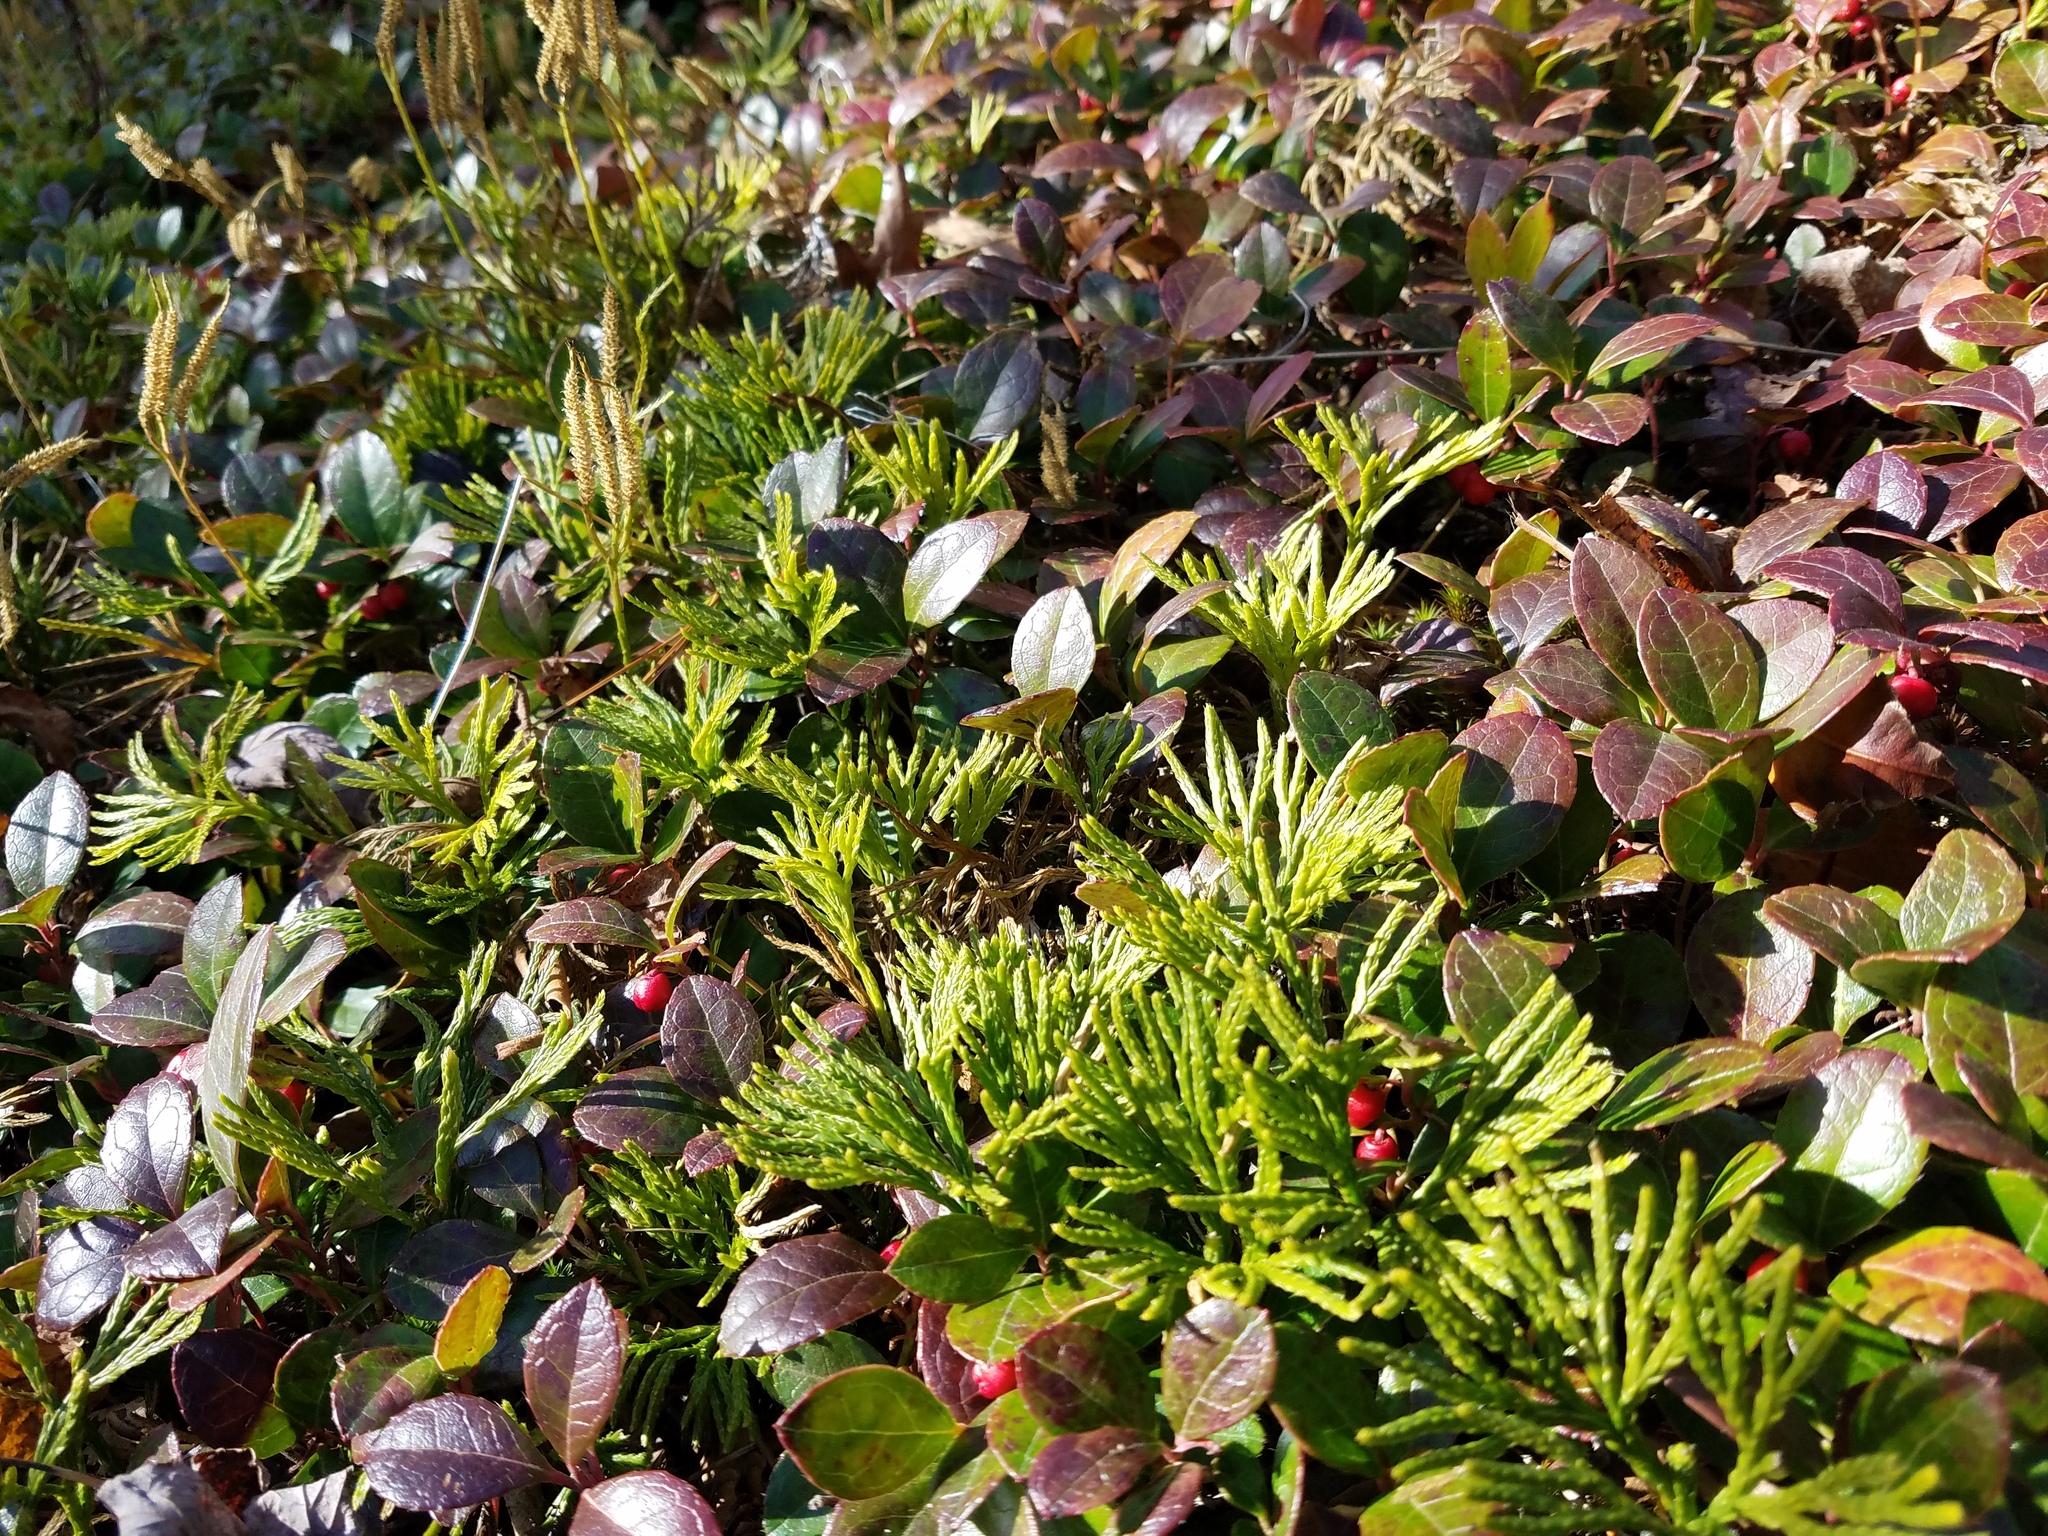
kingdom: Plantae
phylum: Tracheophyta
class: Lycopodiopsida
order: Lycopodiales
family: Lycopodiaceae
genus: Diphasiastrum
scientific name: Diphasiastrum digitatum
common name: Southern running-pine
